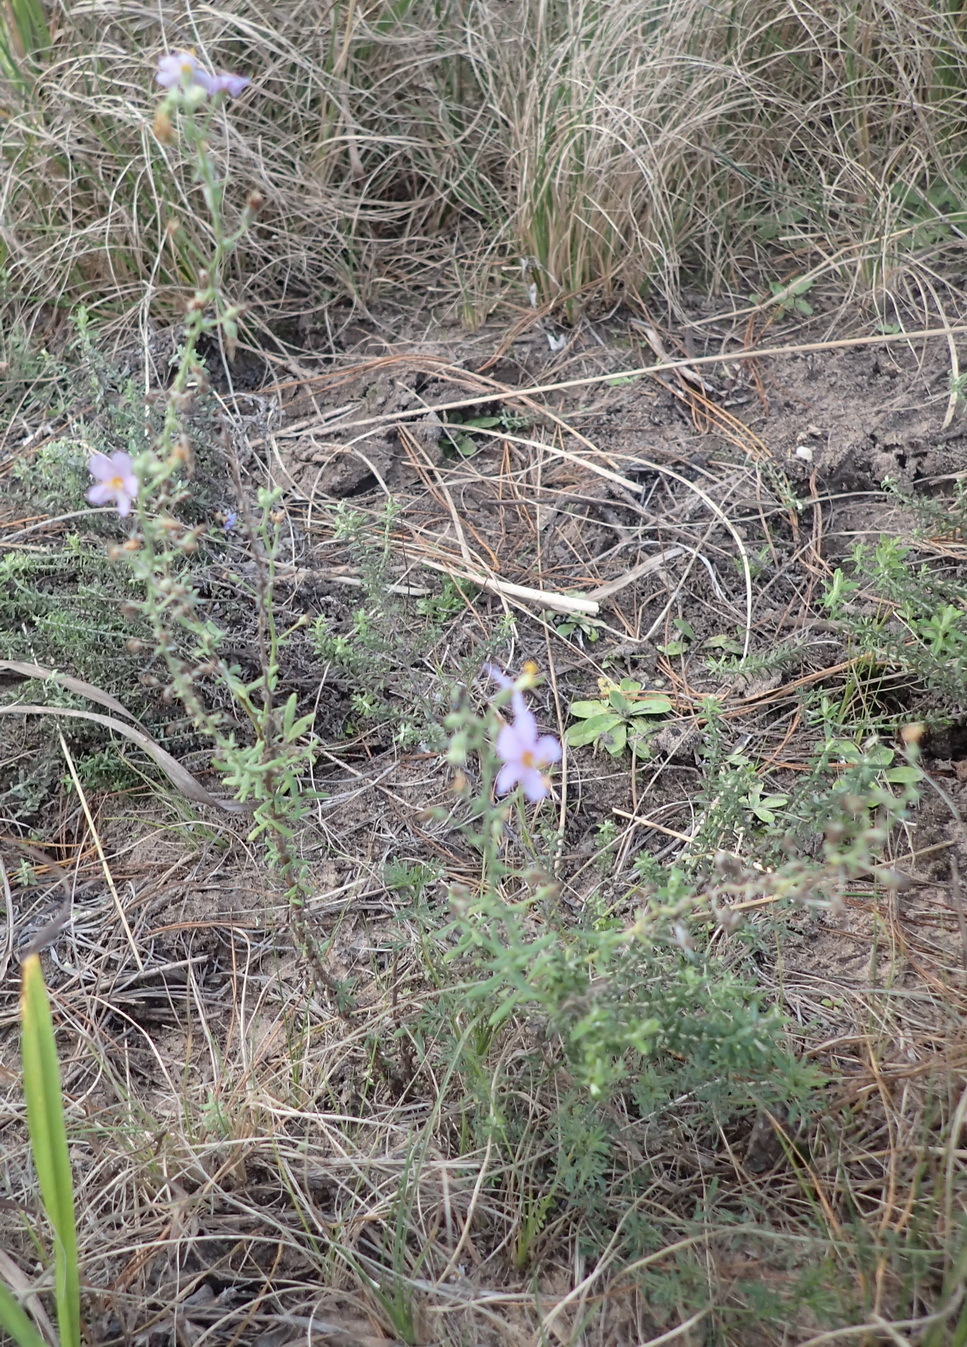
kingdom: Plantae
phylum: Tracheophyta
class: Magnoliopsida
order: Lamiales
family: Scrophulariaceae
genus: Chaenostoma
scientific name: Chaenostoma caeruleum
